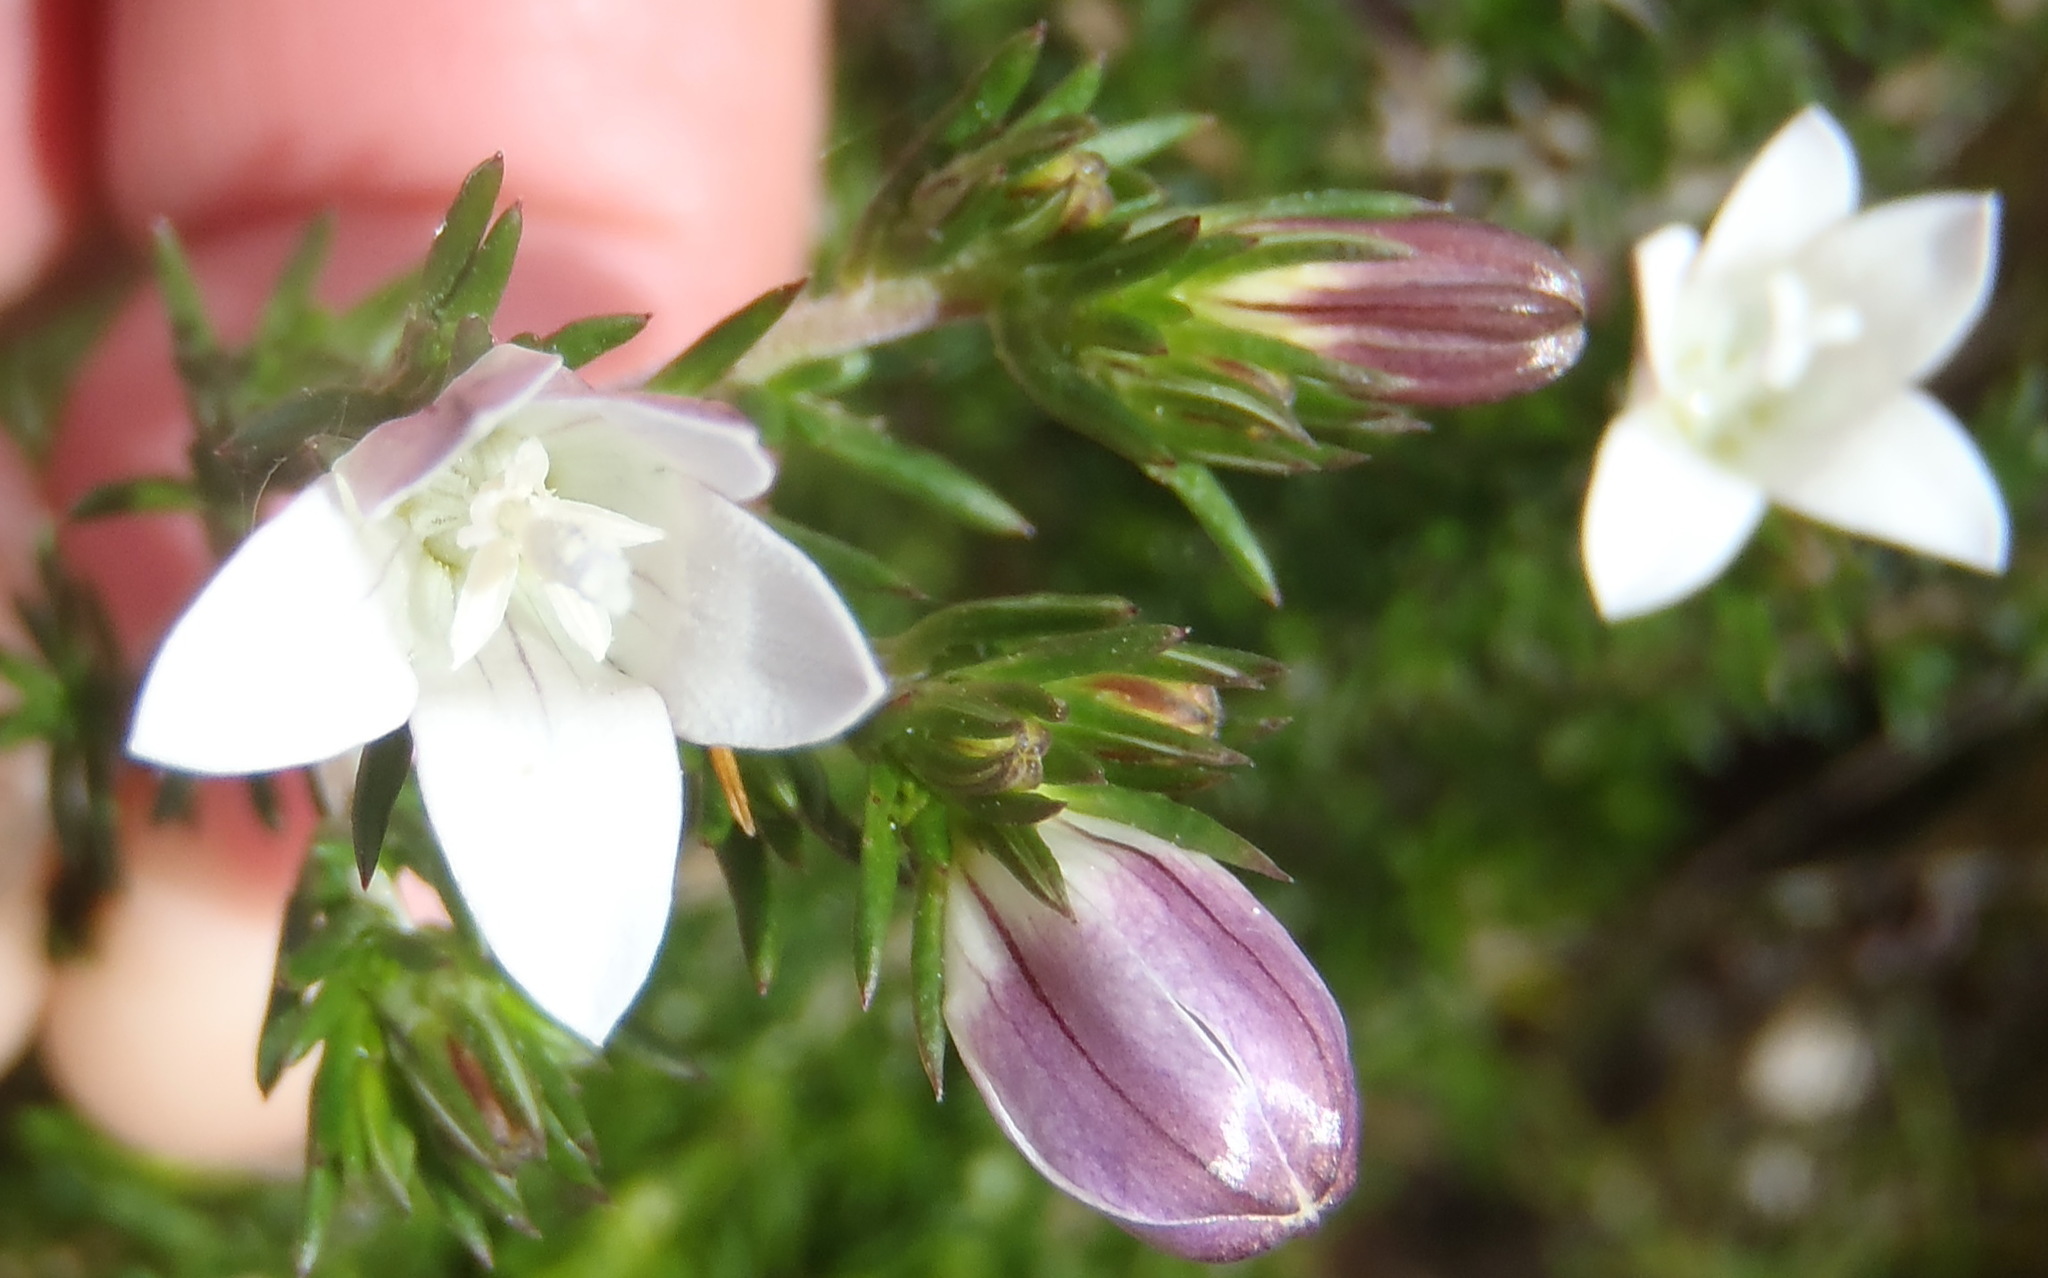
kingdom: Plantae
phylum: Tracheophyta
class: Magnoliopsida
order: Asterales
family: Campanulaceae
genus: Roella
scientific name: Roella compacta
